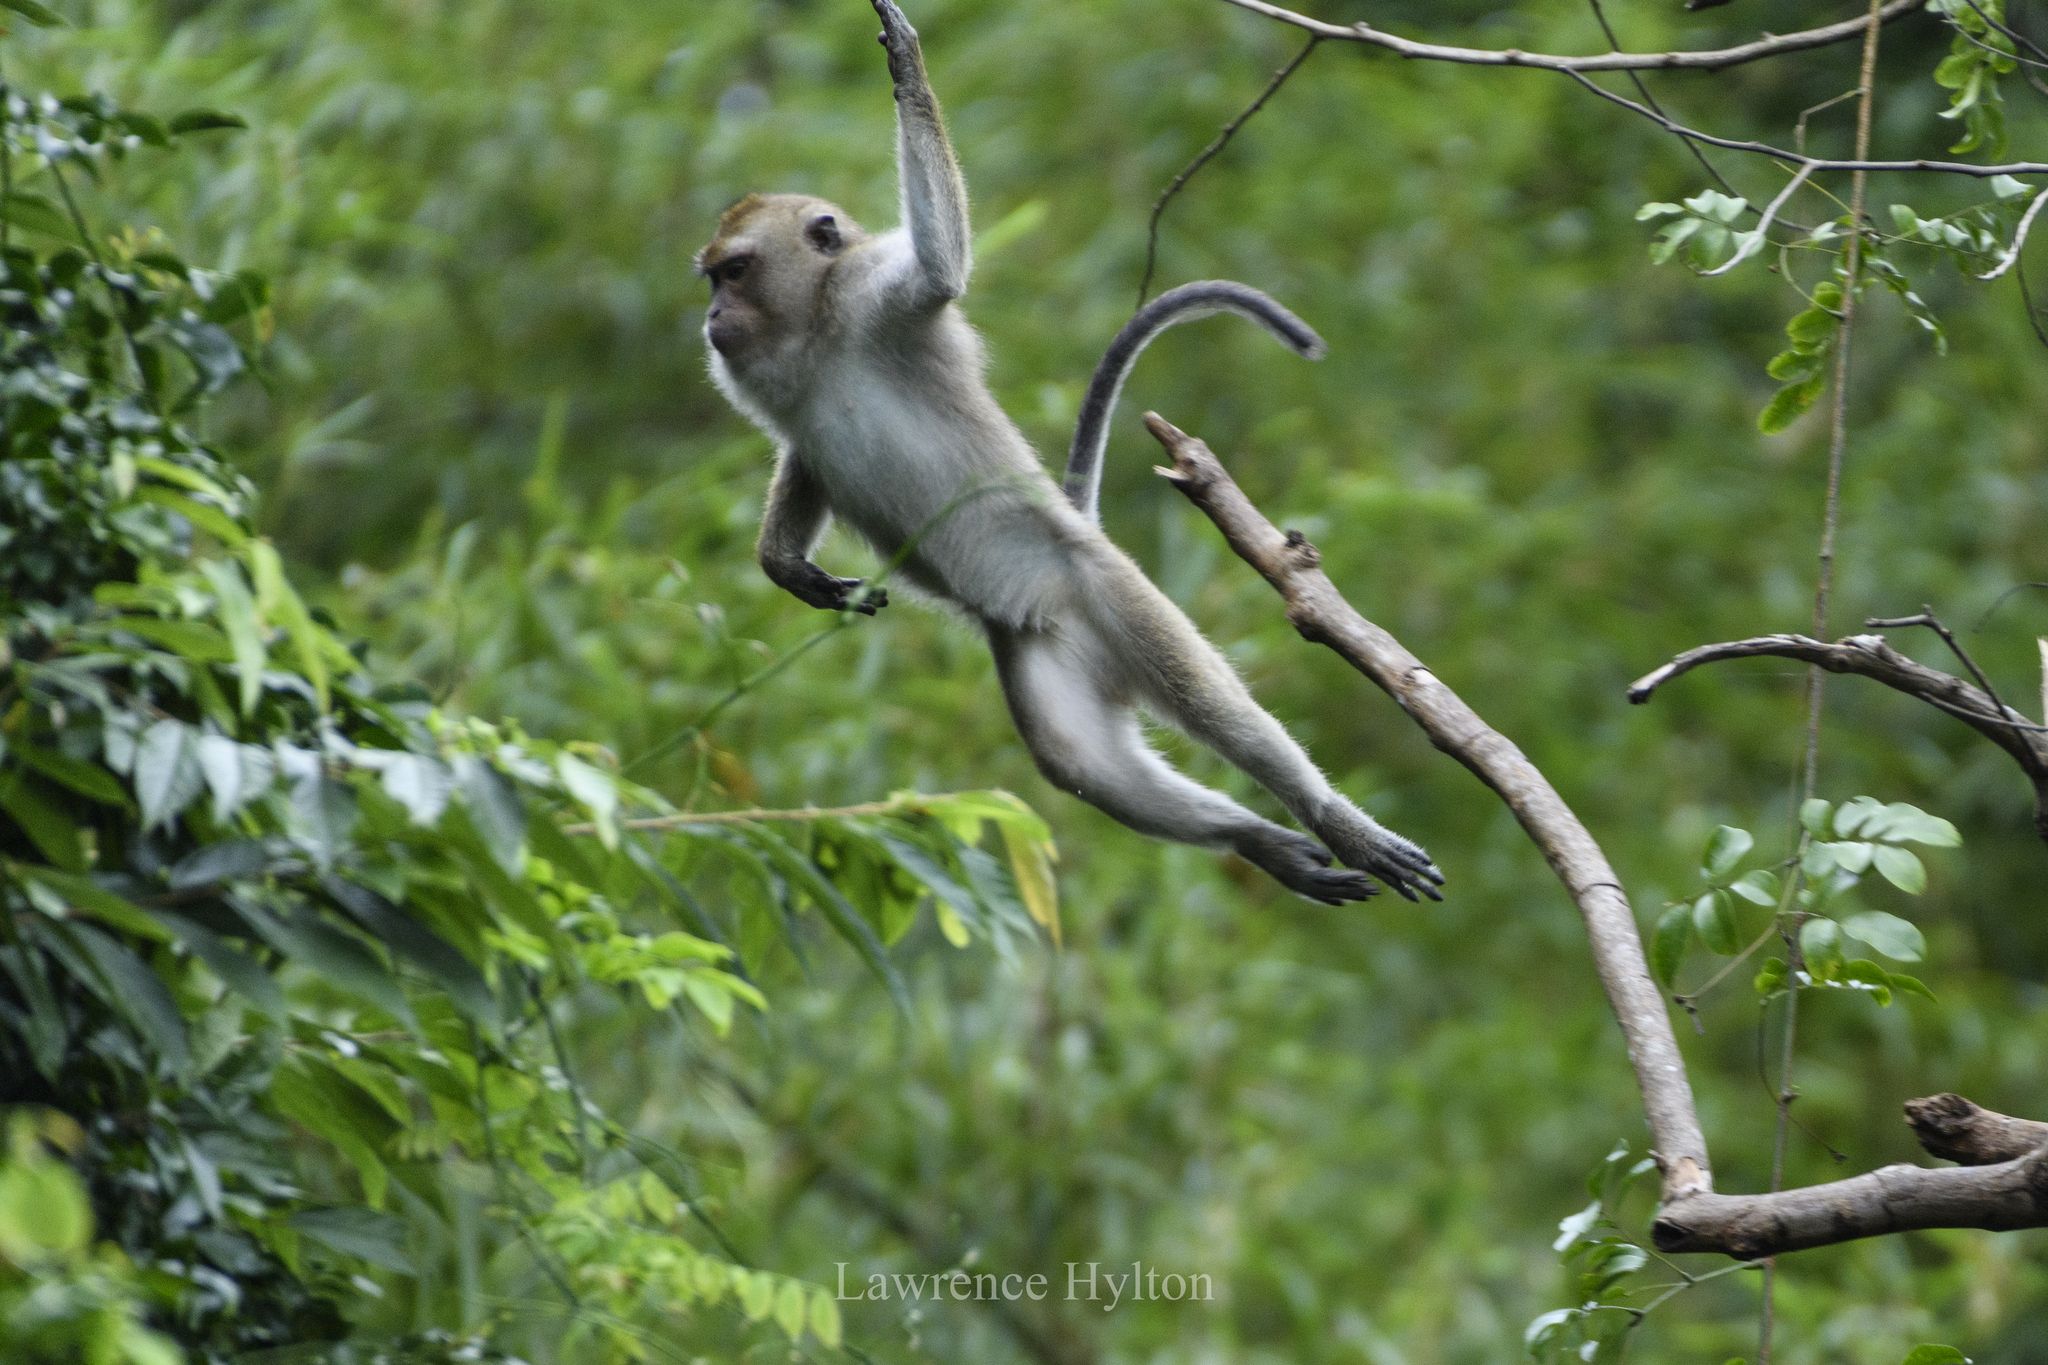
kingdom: Animalia
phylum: Chordata
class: Mammalia
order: Primates
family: Cercopithecidae
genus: Macaca
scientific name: Macaca fascicularis
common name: Crab-eating macaque
